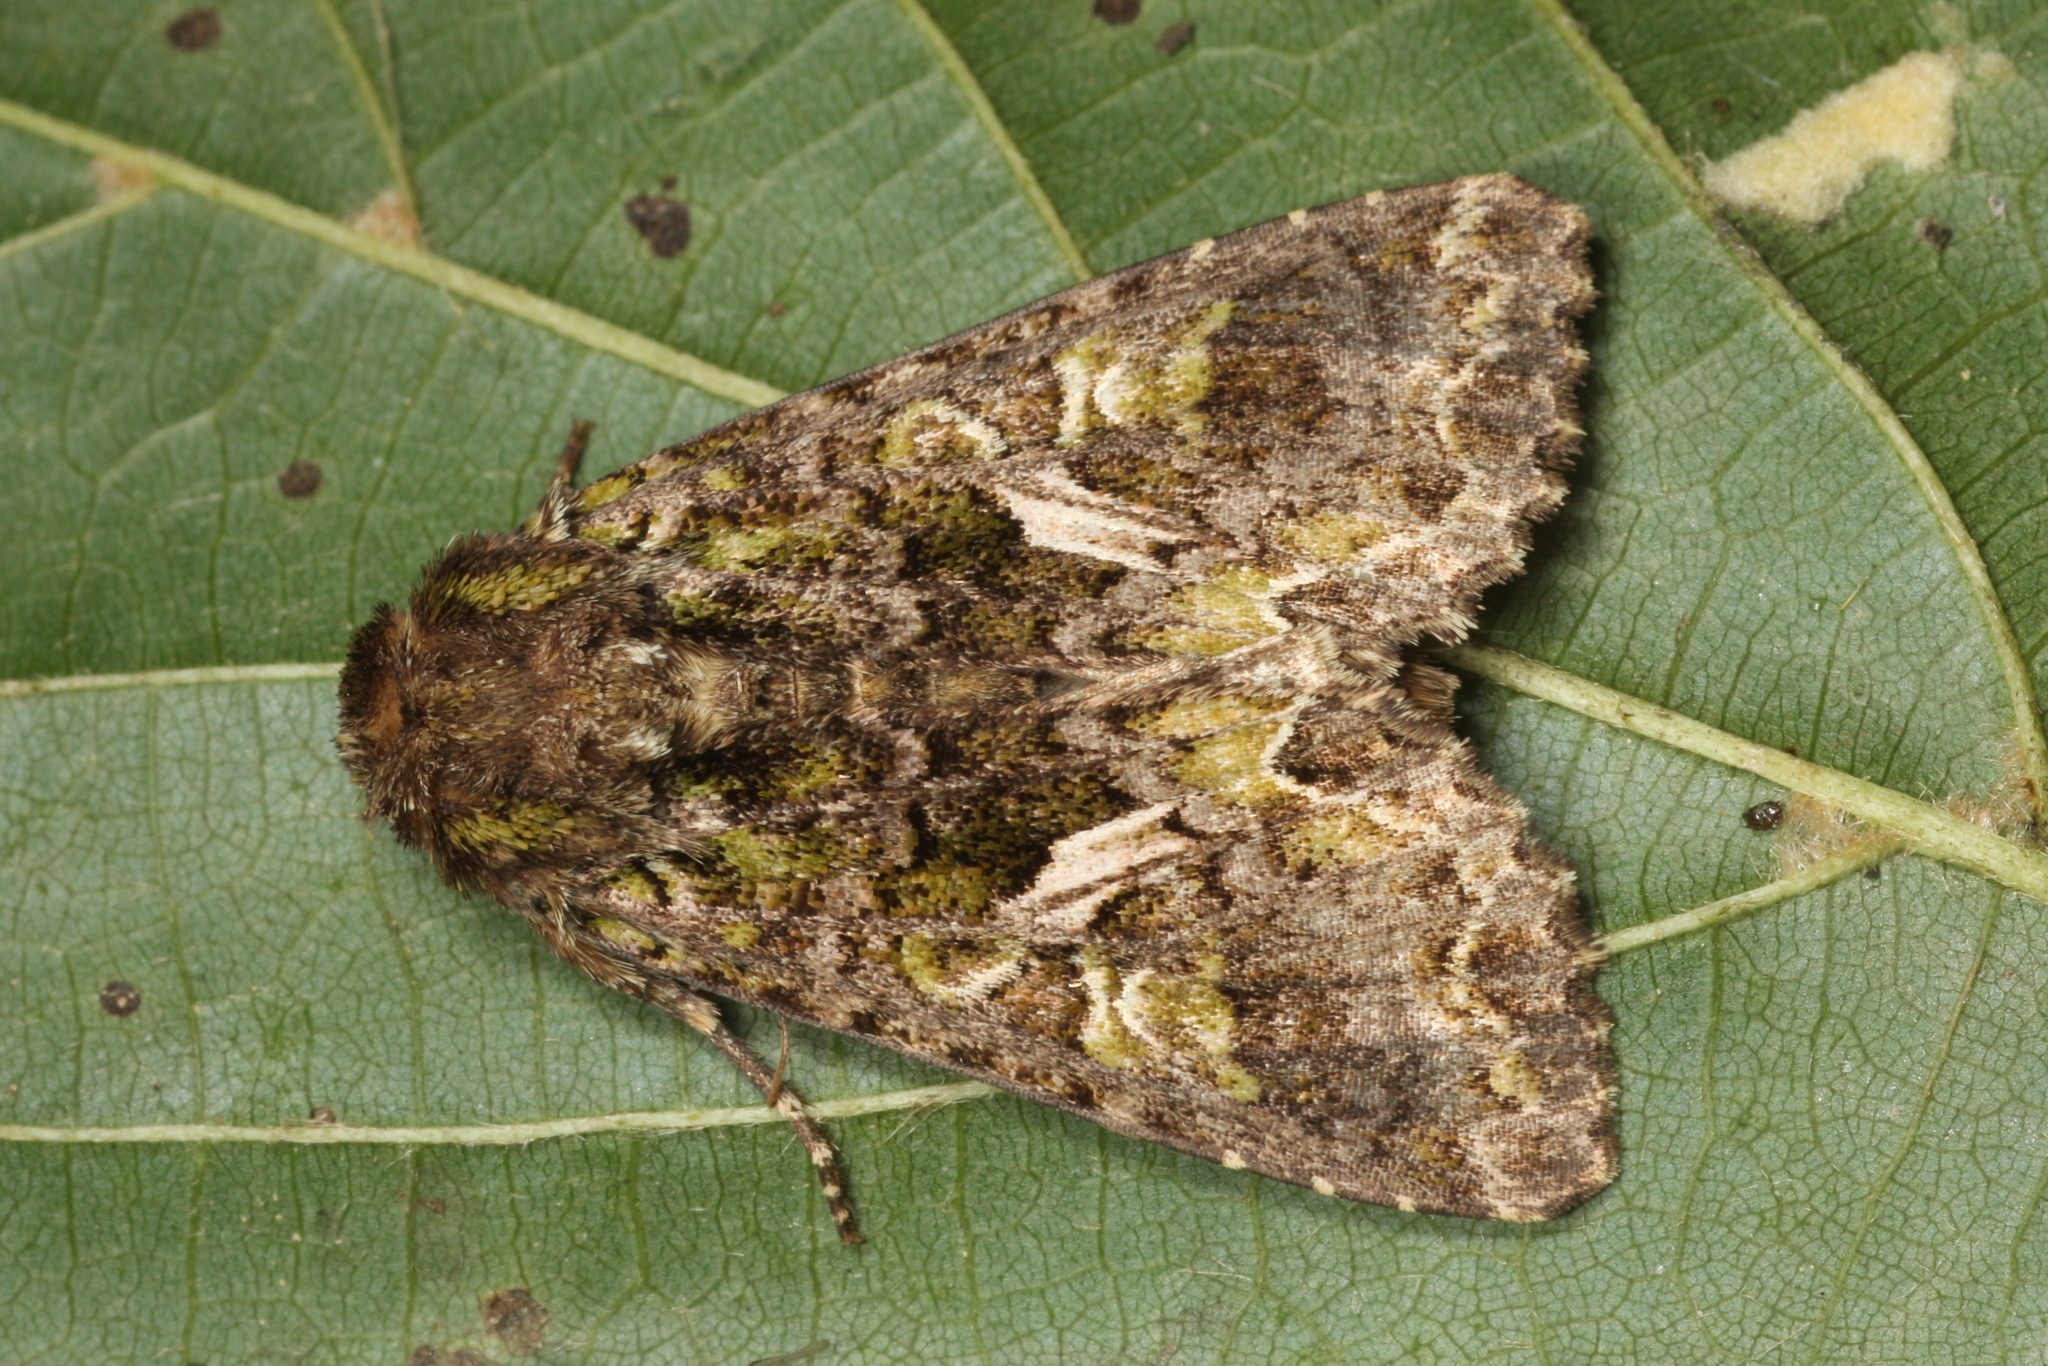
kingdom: Animalia
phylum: Arthropoda
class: Insecta
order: Lepidoptera
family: Noctuidae
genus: Trachea
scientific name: Trachea atriplicis
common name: Orache moth
